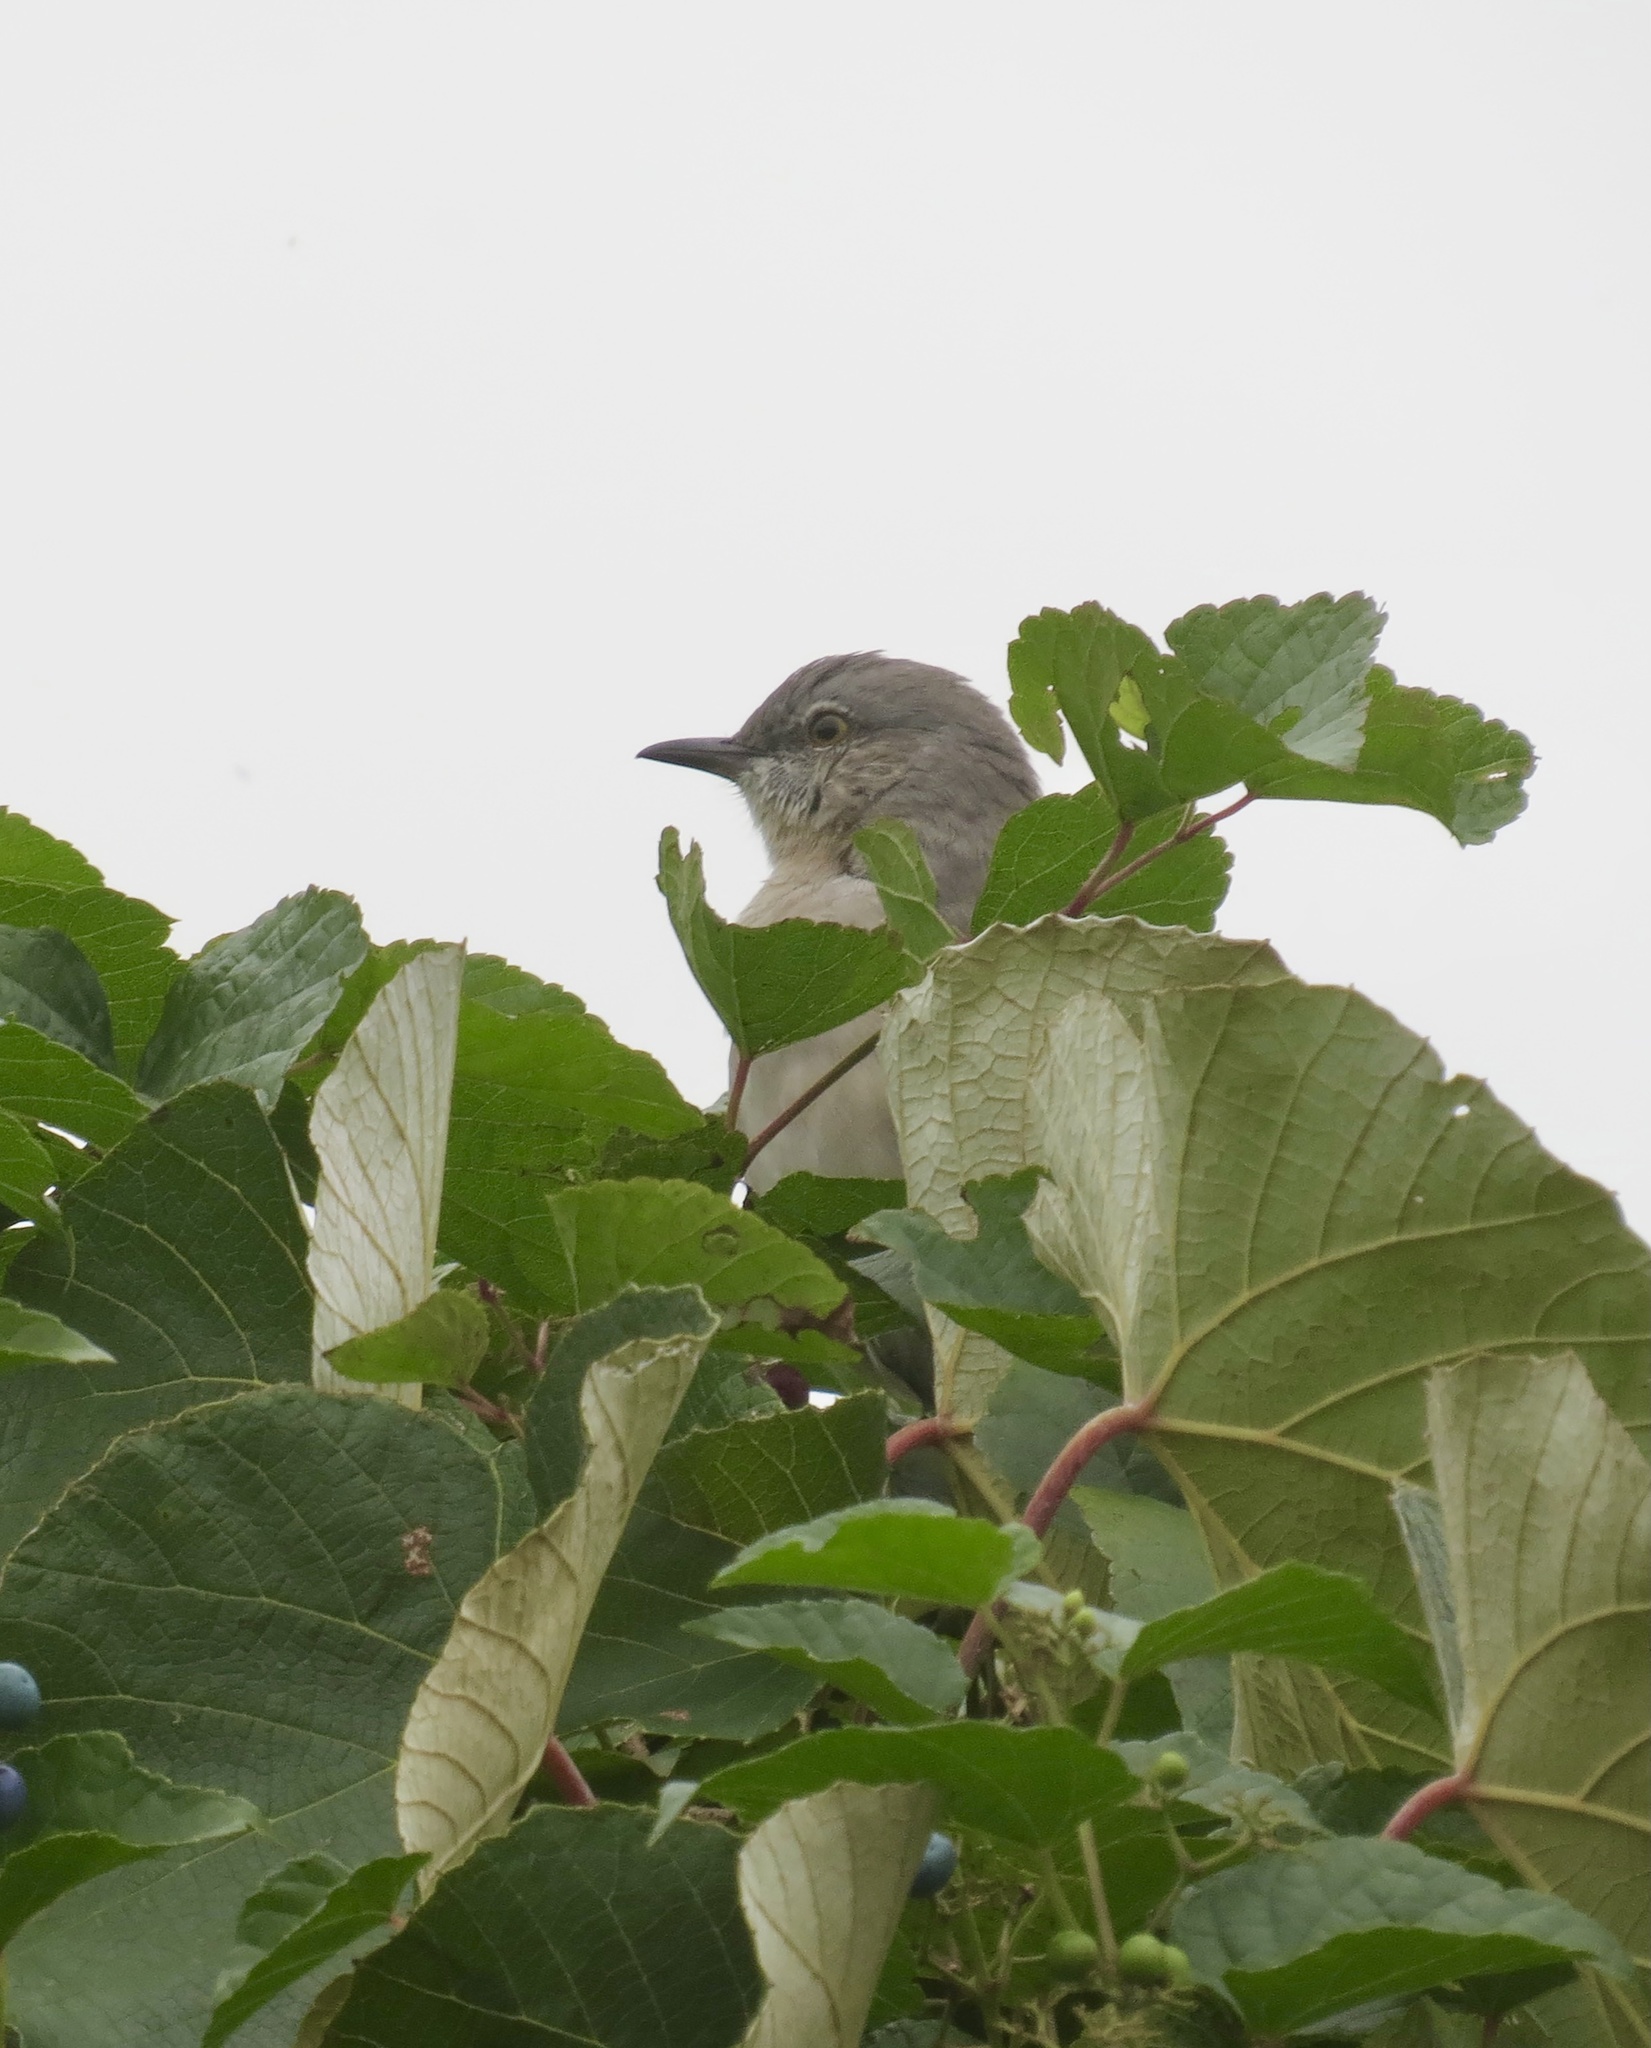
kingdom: Animalia
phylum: Chordata
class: Aves
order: Passeriformes
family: Mimidae
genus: Mimus
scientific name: Mimus polyglottos
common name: Northern mockingbird
